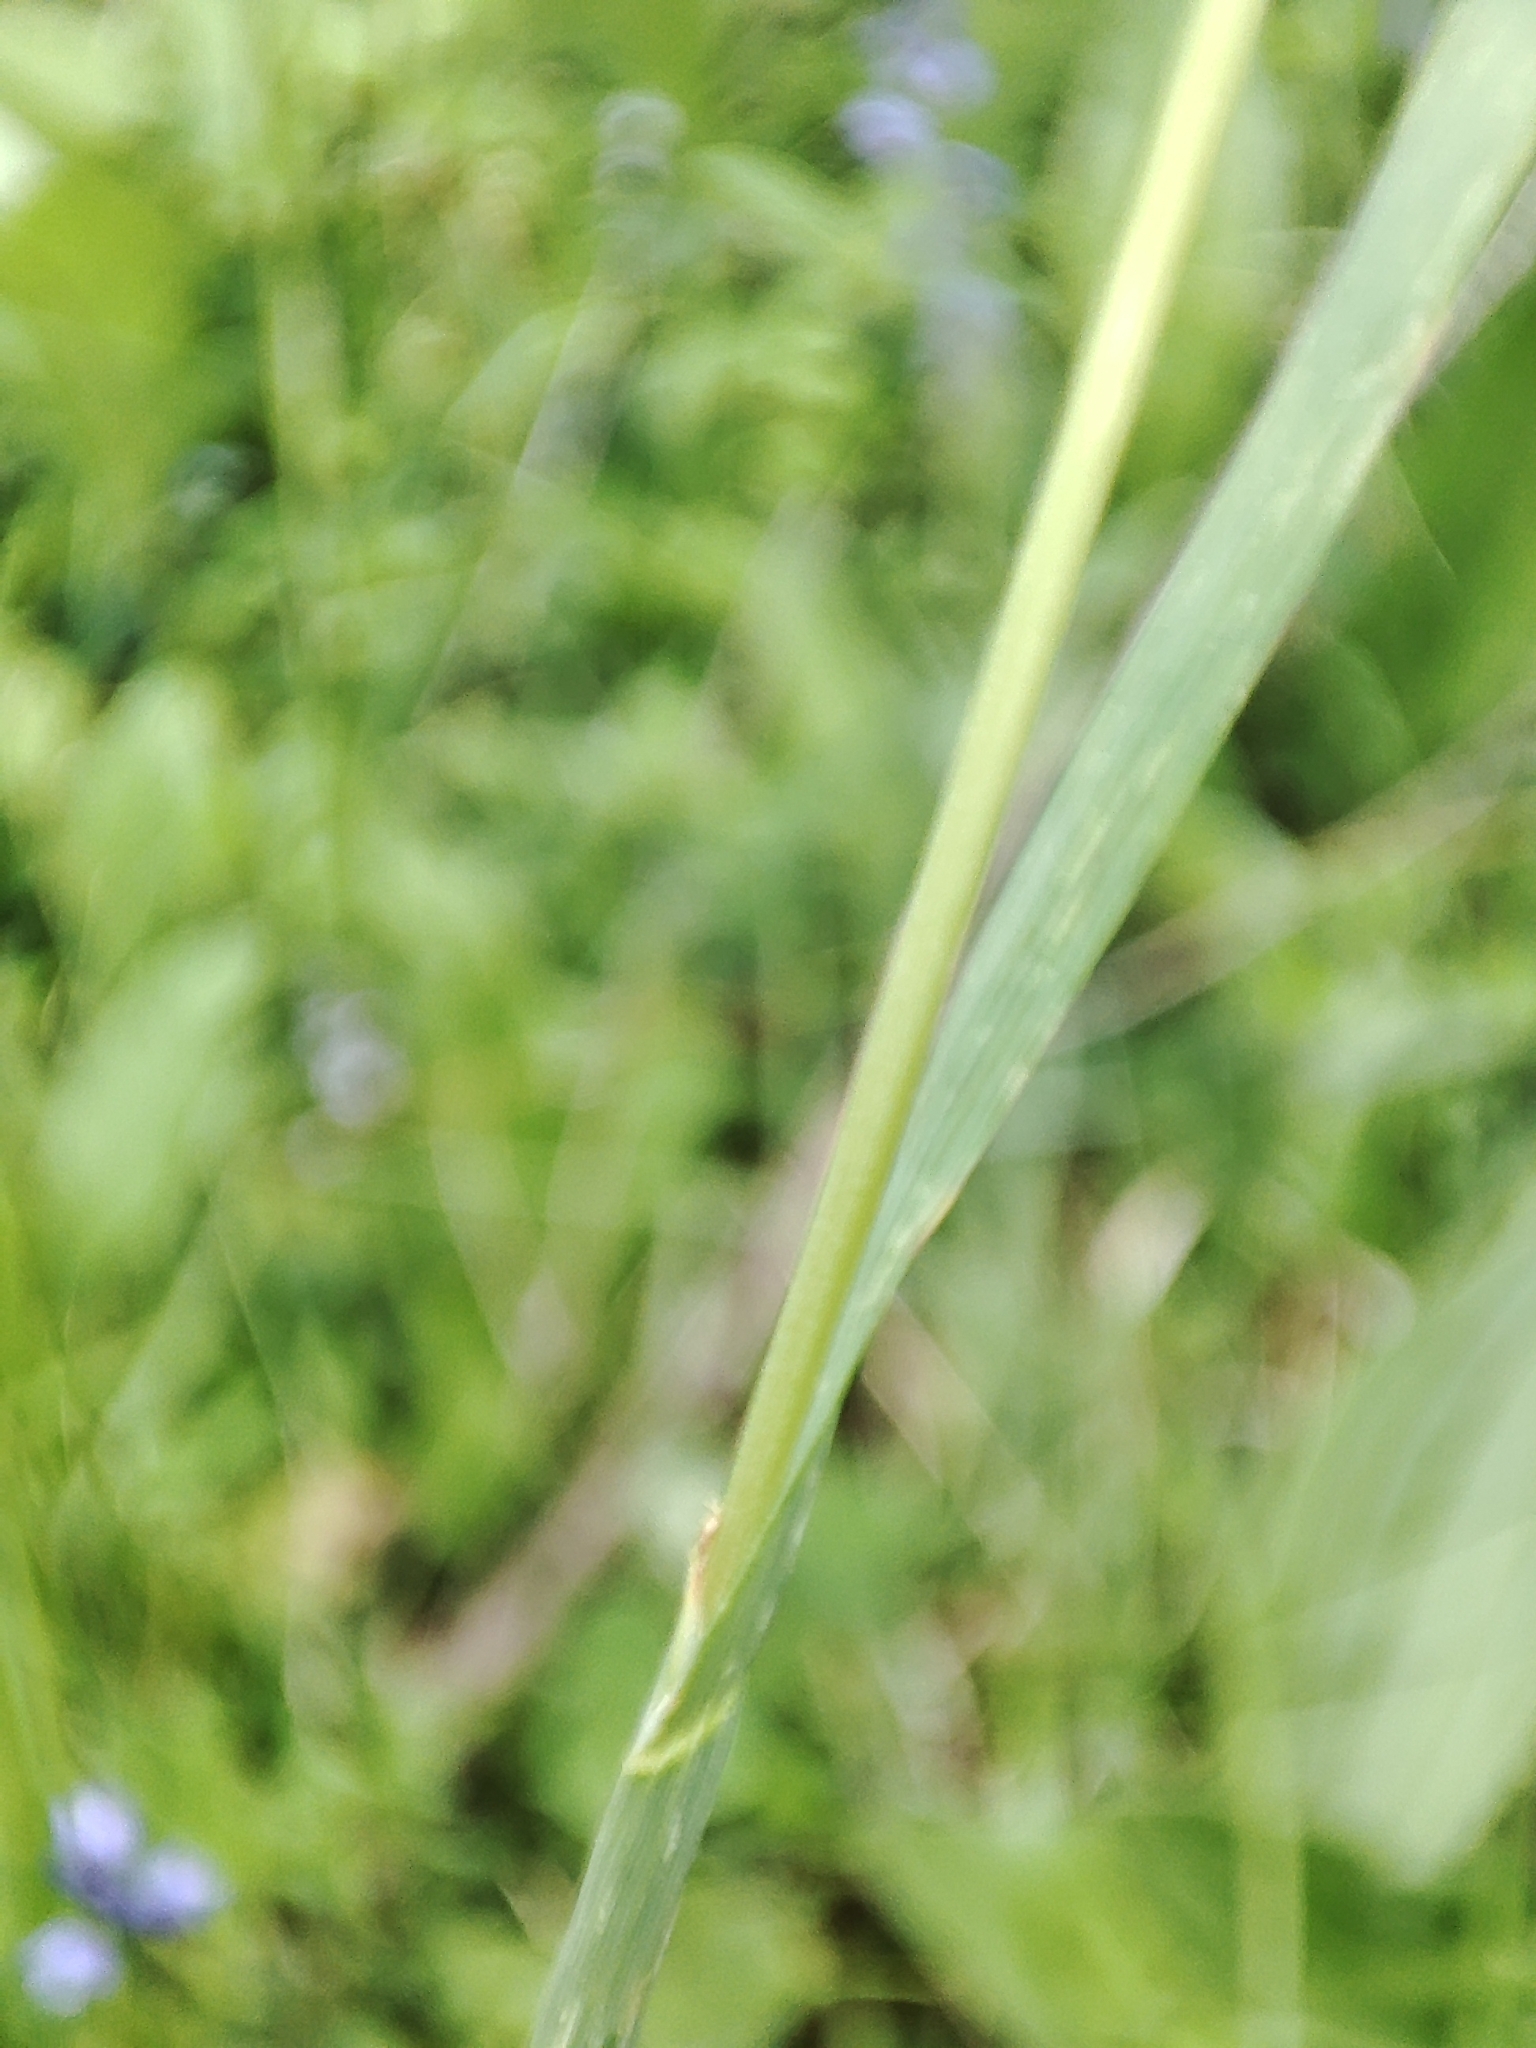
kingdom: Plantae
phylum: Tracheophyta
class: Liliopsida
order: Poales
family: Poaceae
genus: Briza
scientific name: Briza media
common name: Quaking grass
